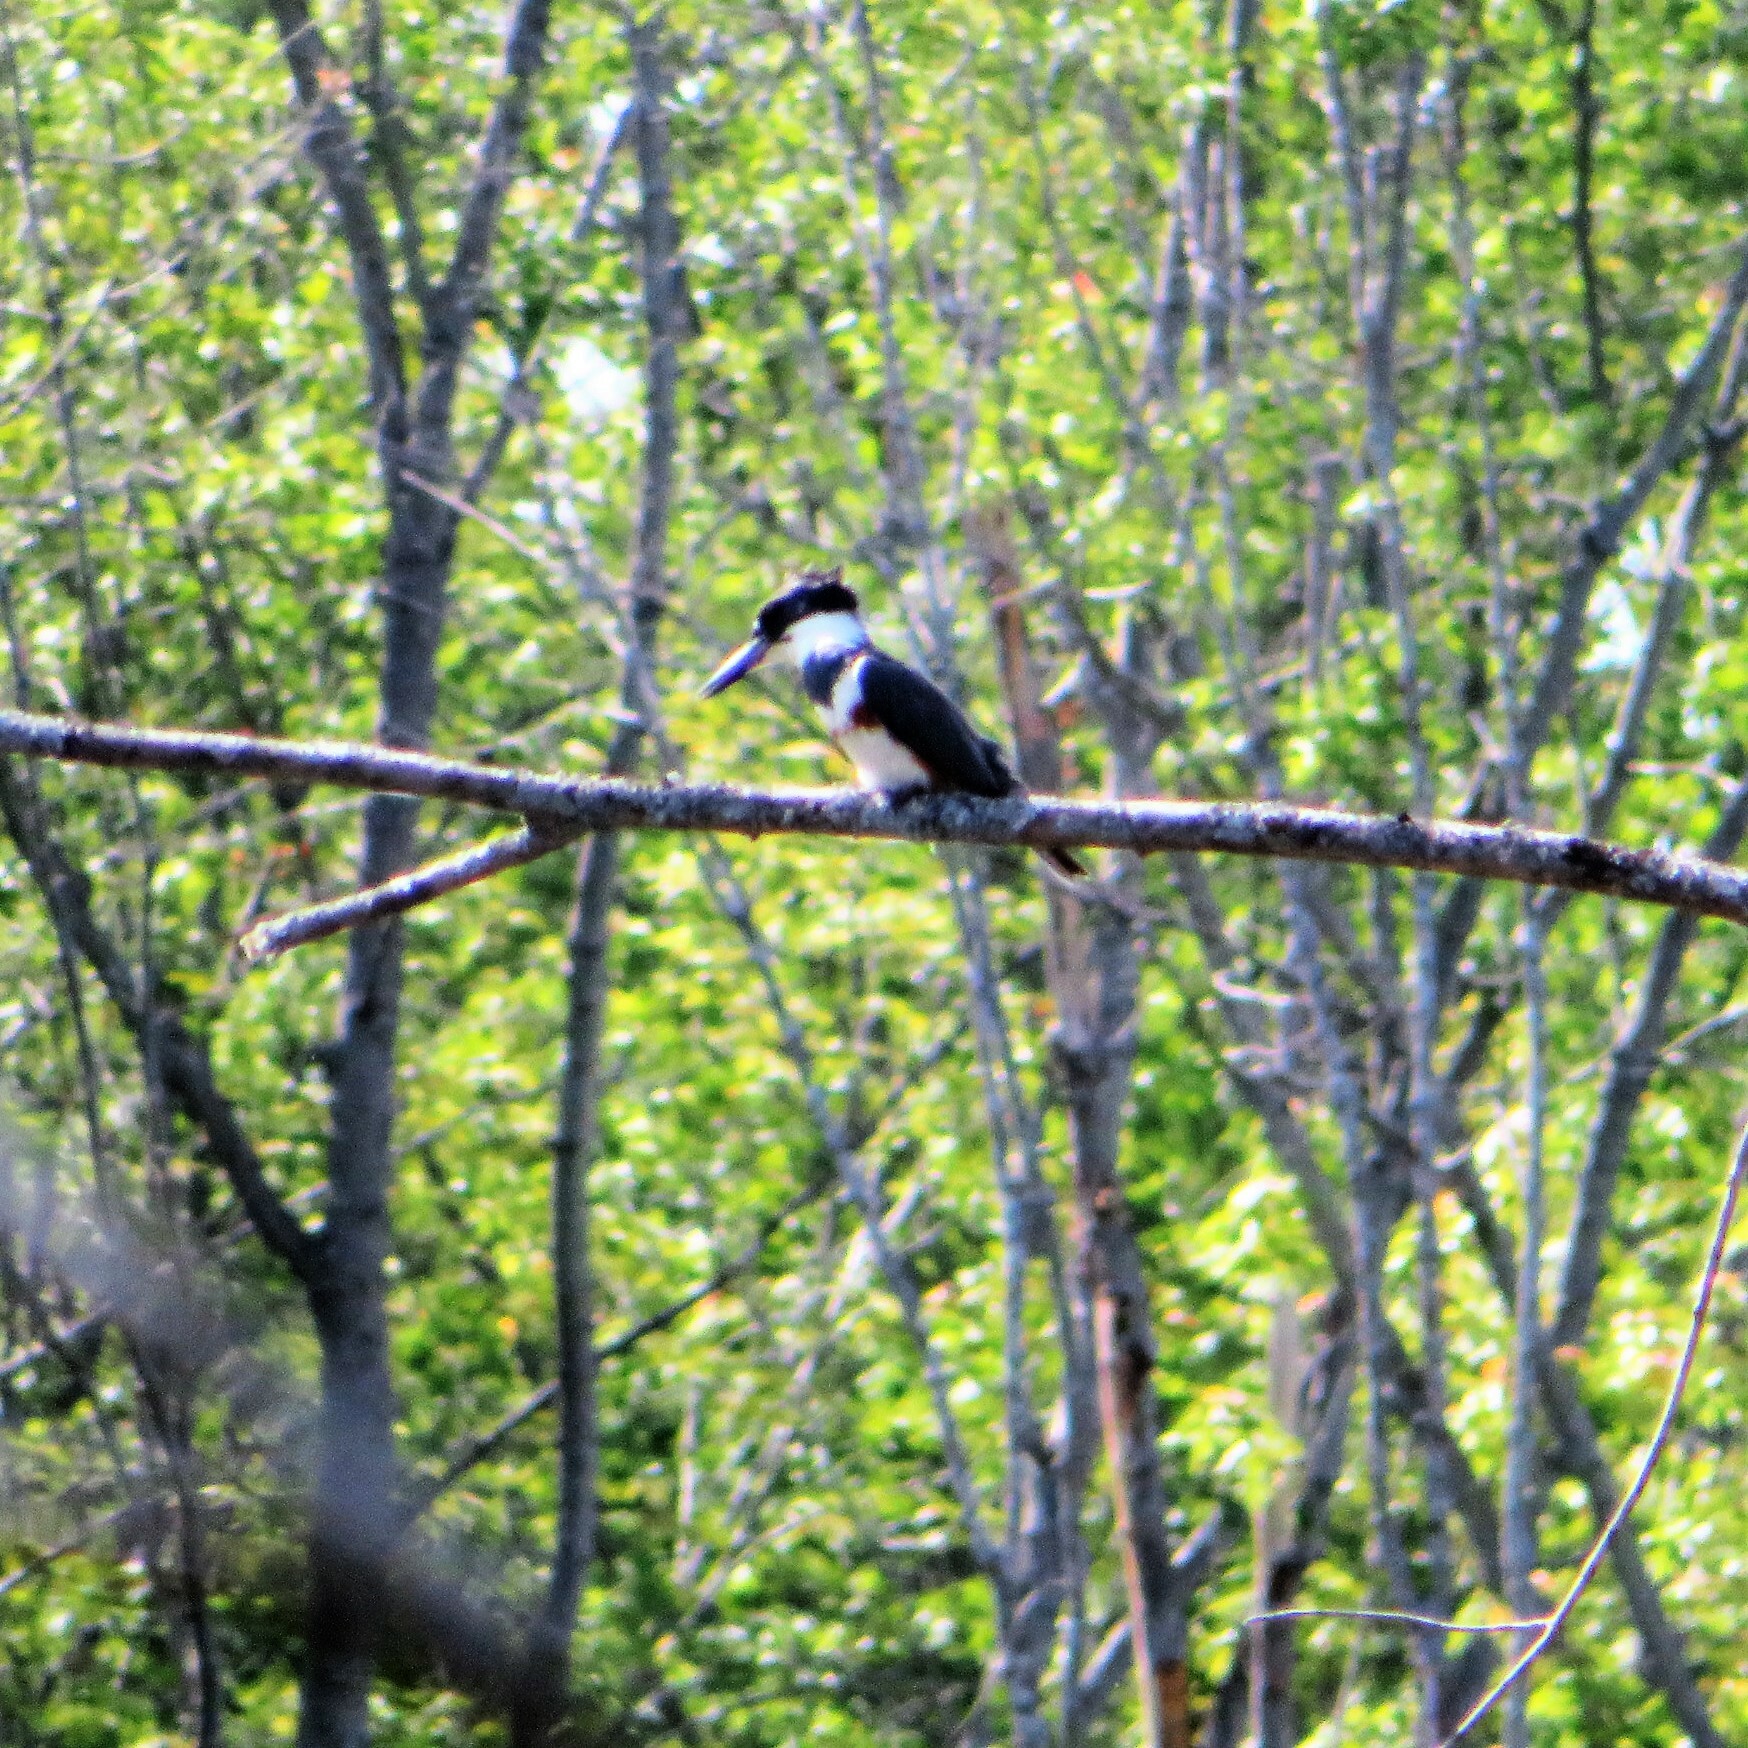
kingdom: Animalia
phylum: Chordata
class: Aves
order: Coraciiformes
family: Alcedinidae
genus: Megaceryle
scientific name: Megaceryle alcyon
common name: Belted kingfisher
